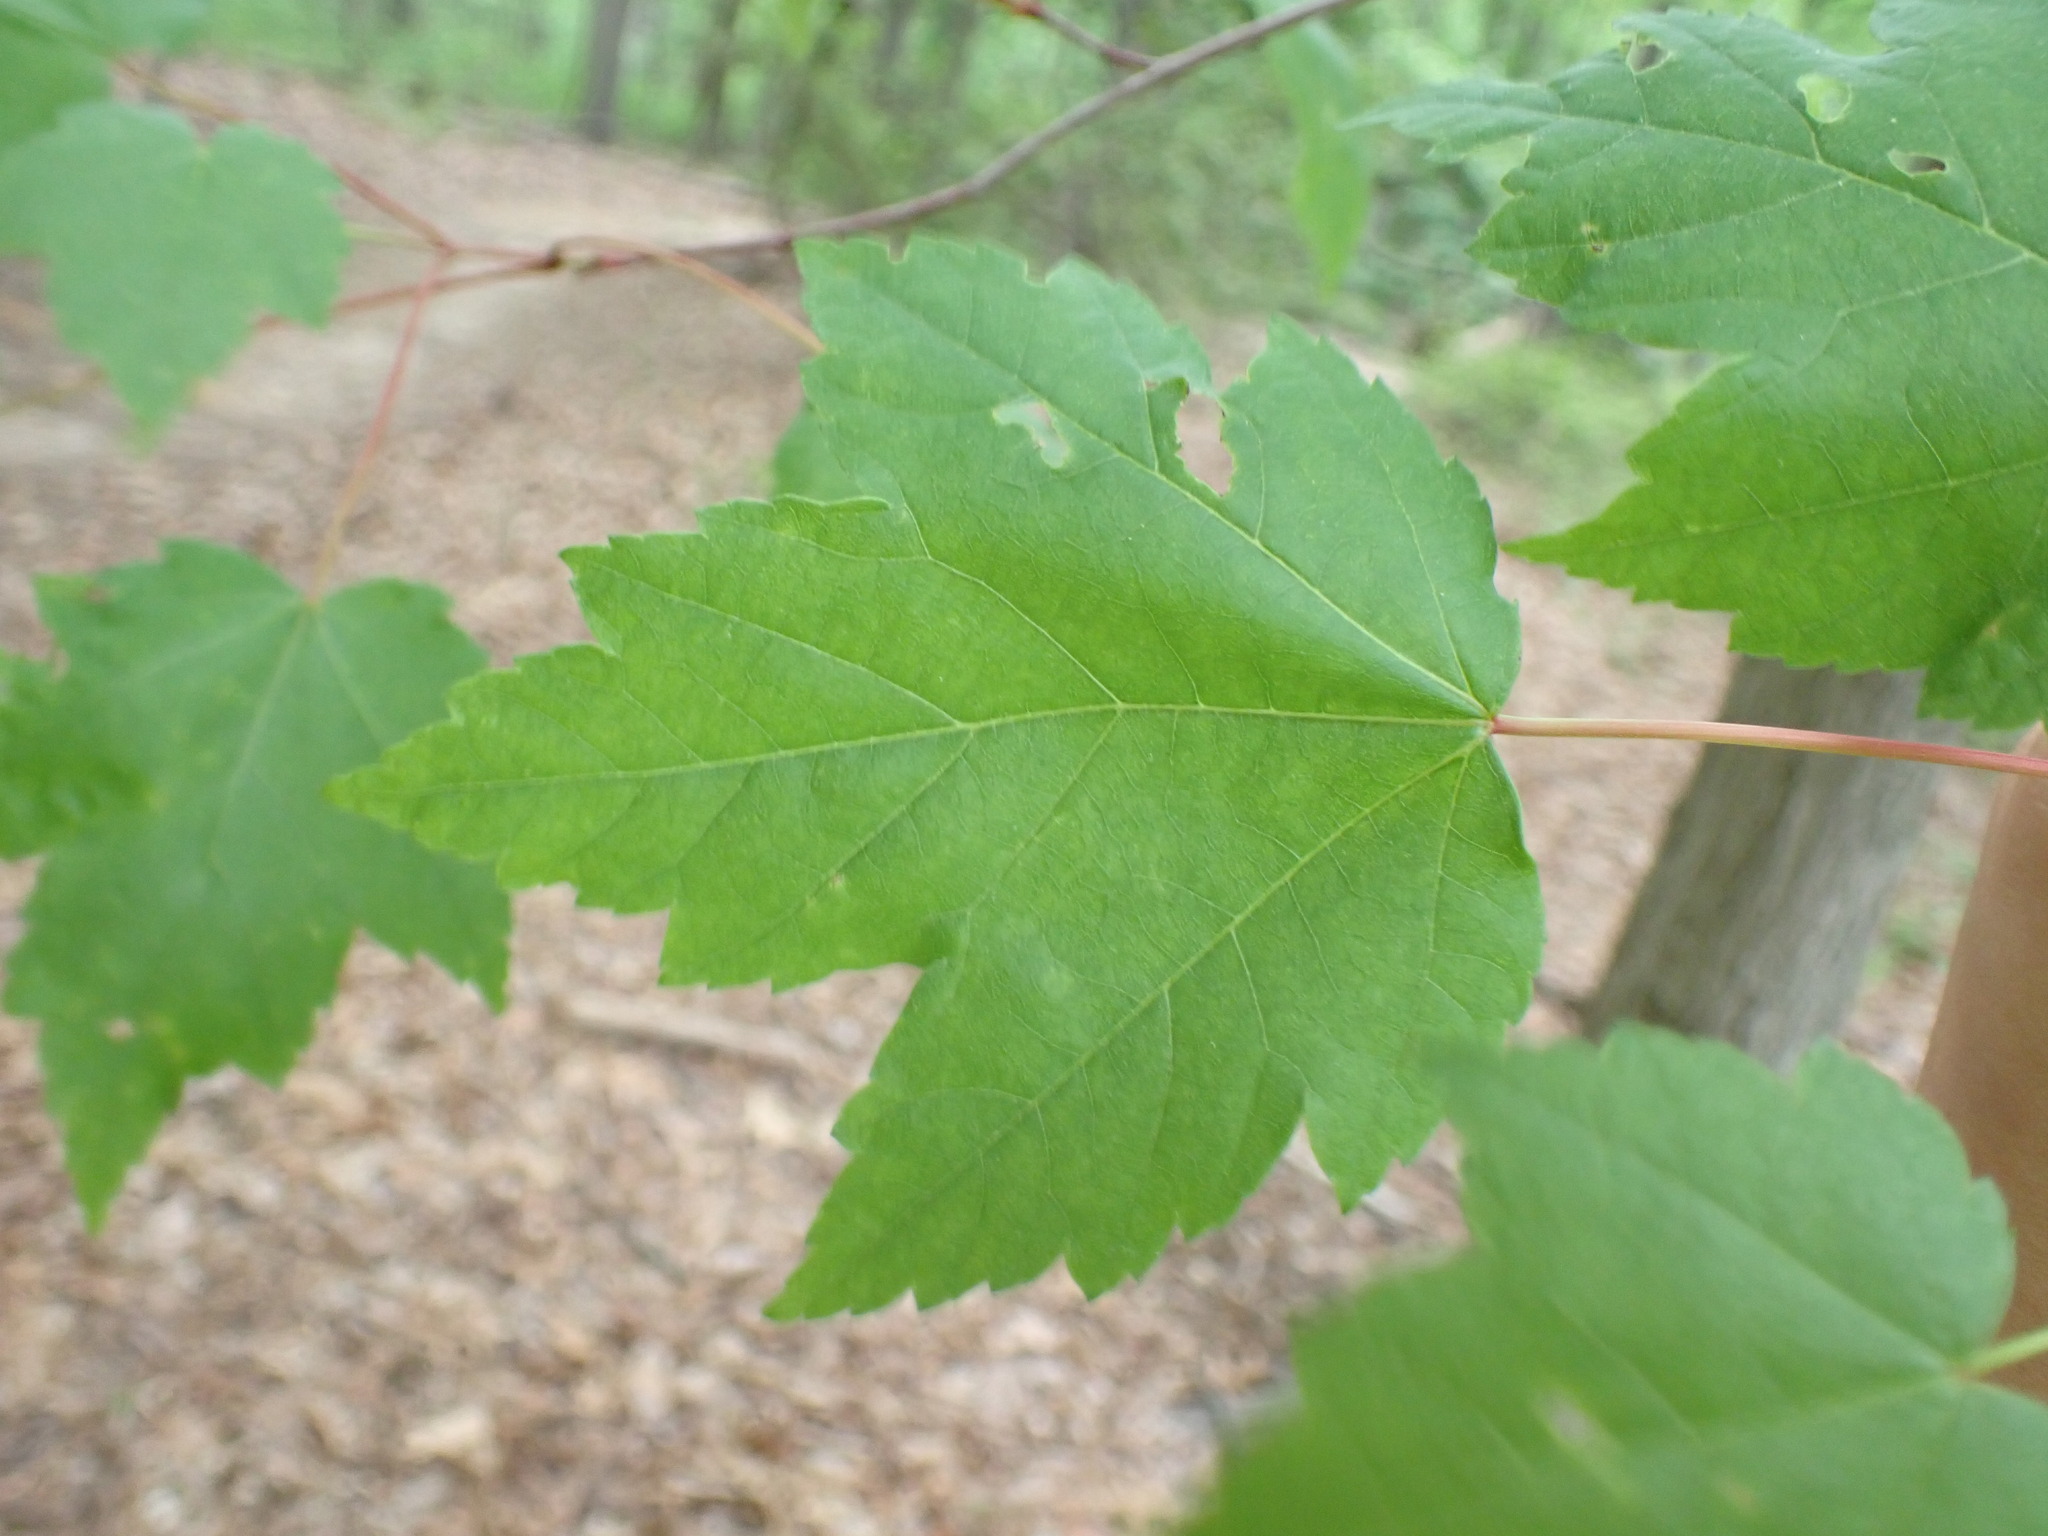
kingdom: Plantae
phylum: Tracheophyta
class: Magnoliopsida
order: Sapindales
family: Sapindaceae
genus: Acer
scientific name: Acer rubrum
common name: Red maple
